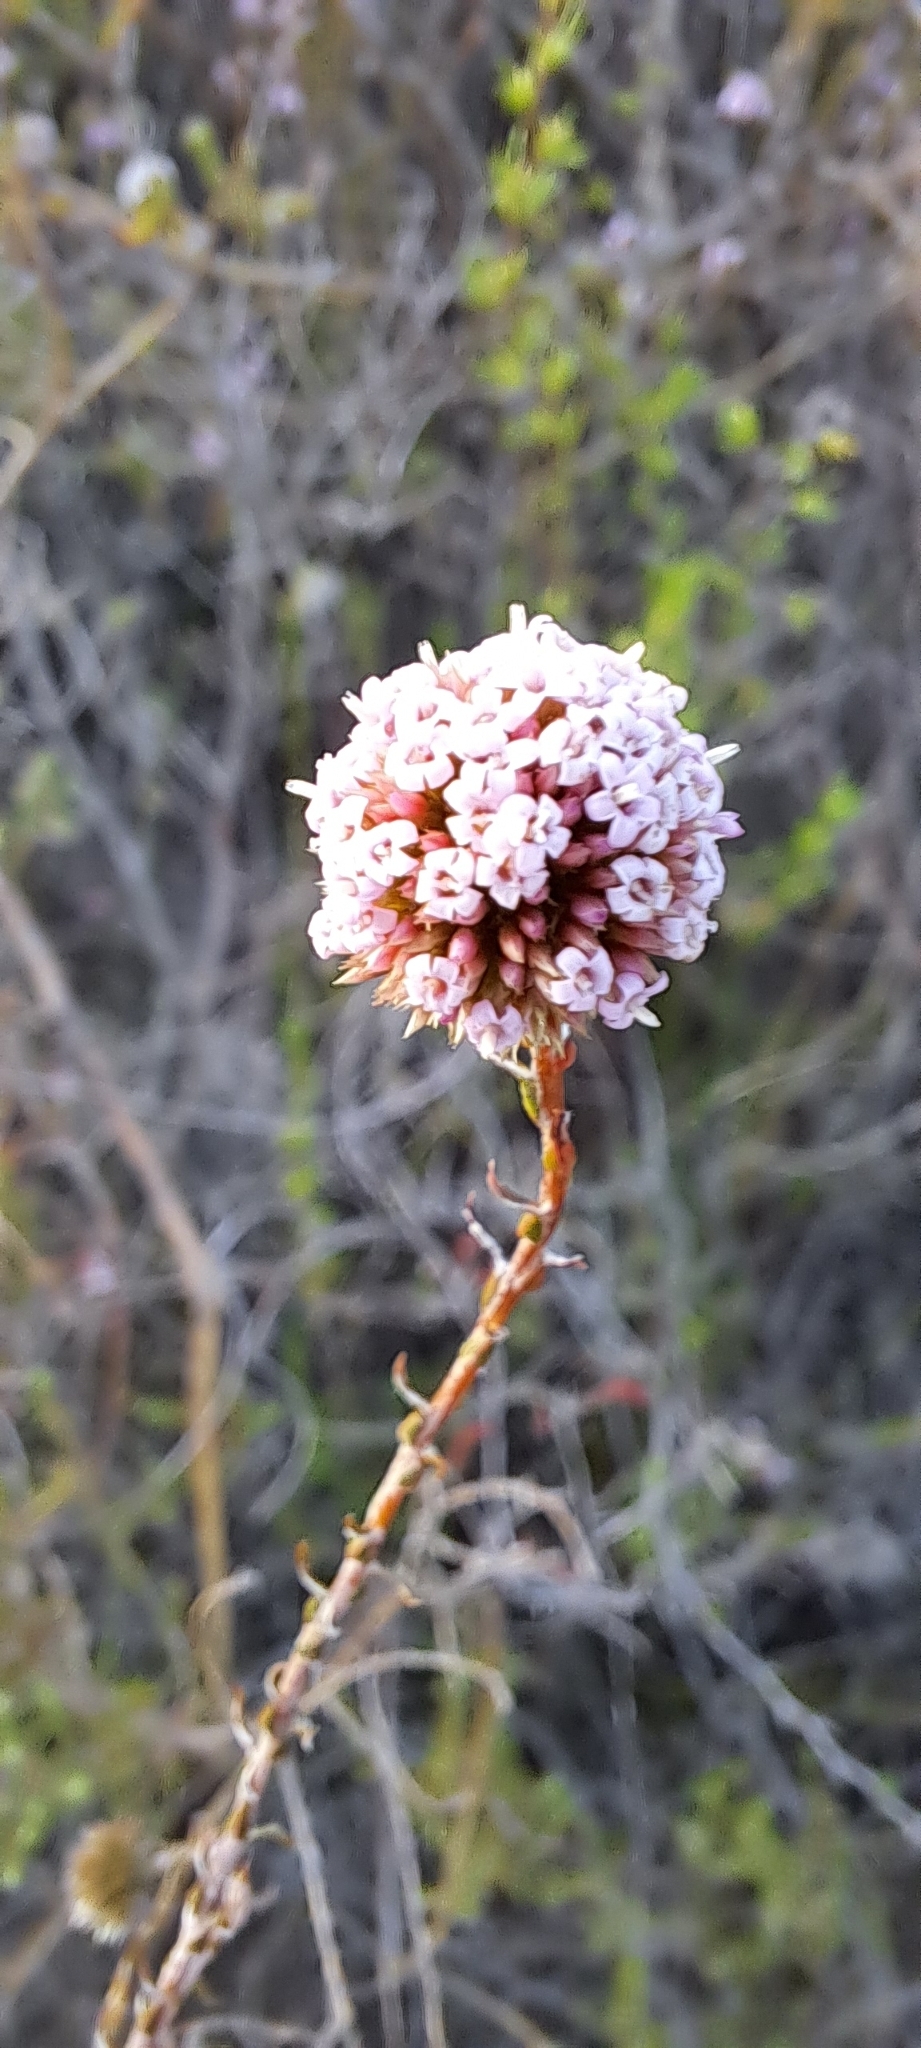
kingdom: Plantae
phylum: Tracheophyta
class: Magnoliopsida
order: Asterales
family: Asteraceae
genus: Stoebe
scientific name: Stoebe capitata
